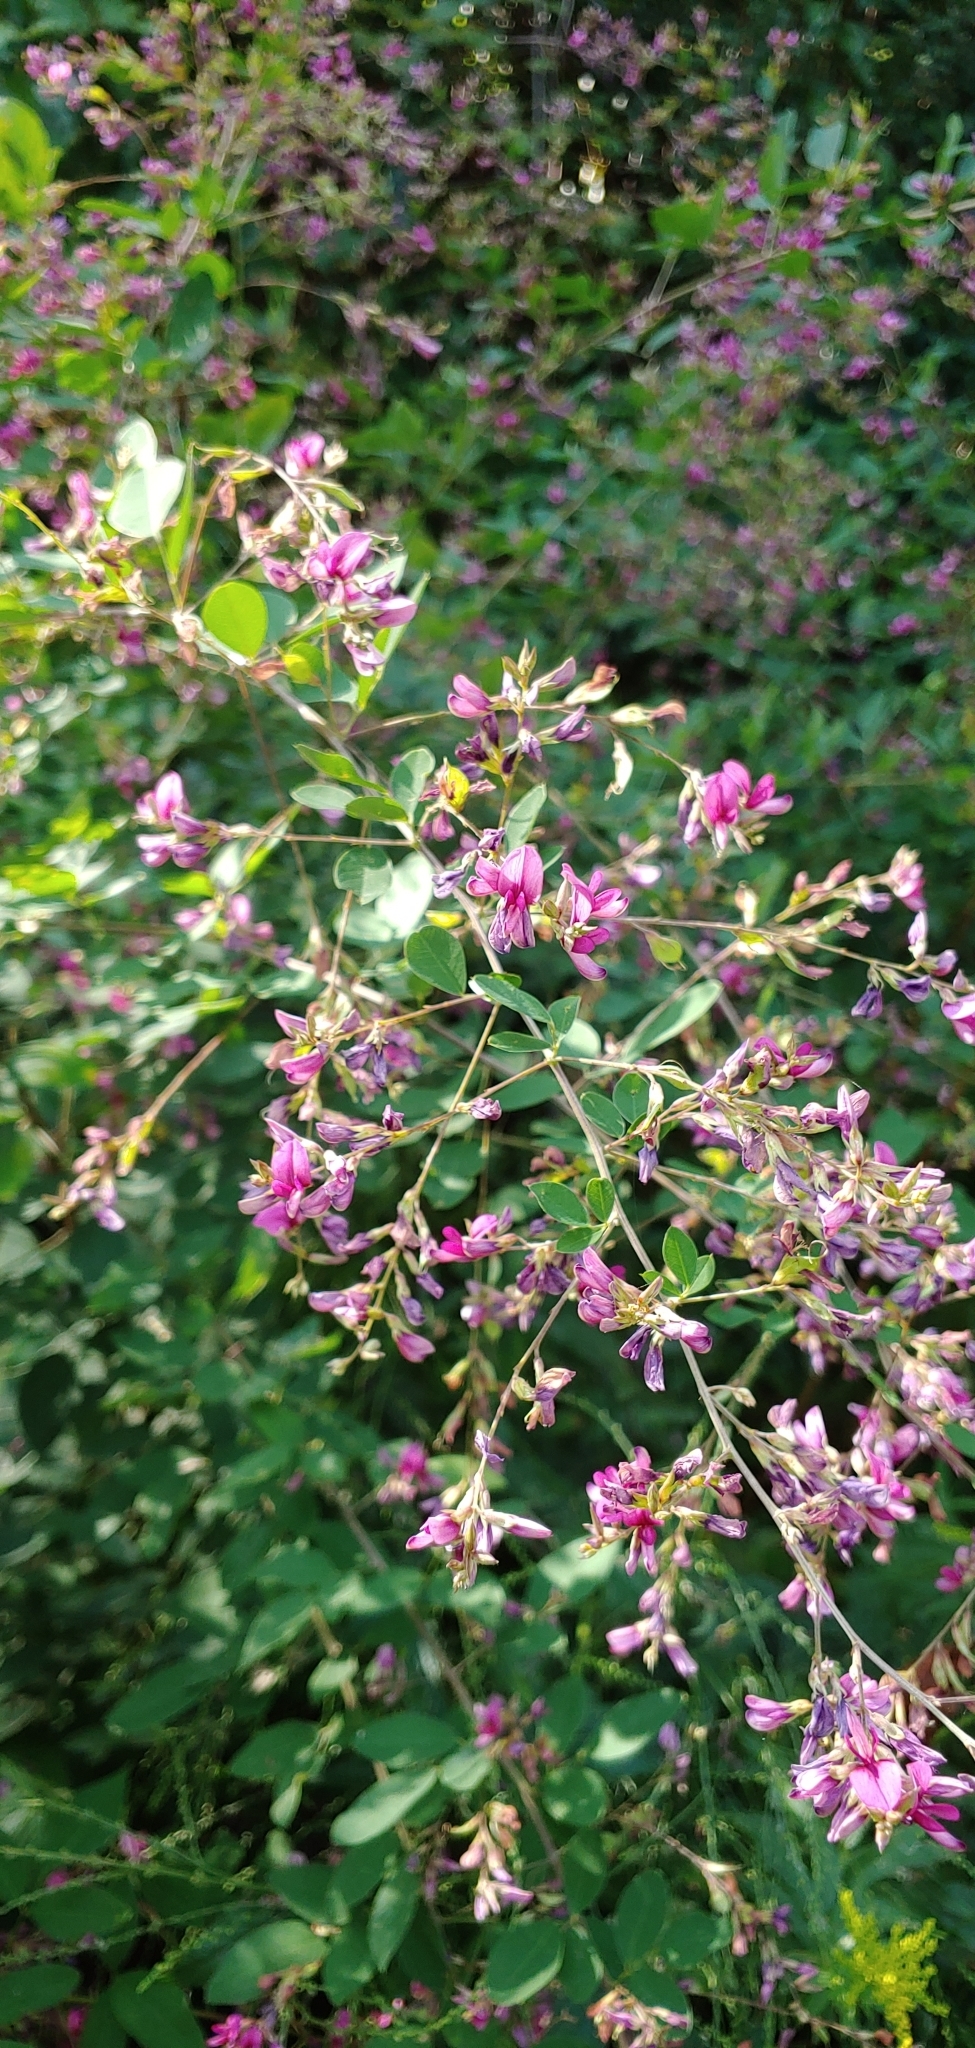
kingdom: Plantae
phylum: Tracheophyta
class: Magnoliopsida
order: Fabales
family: Fabaceae
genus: Lespedeza
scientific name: Lespedeza bicolor
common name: Shrub lespedeza
